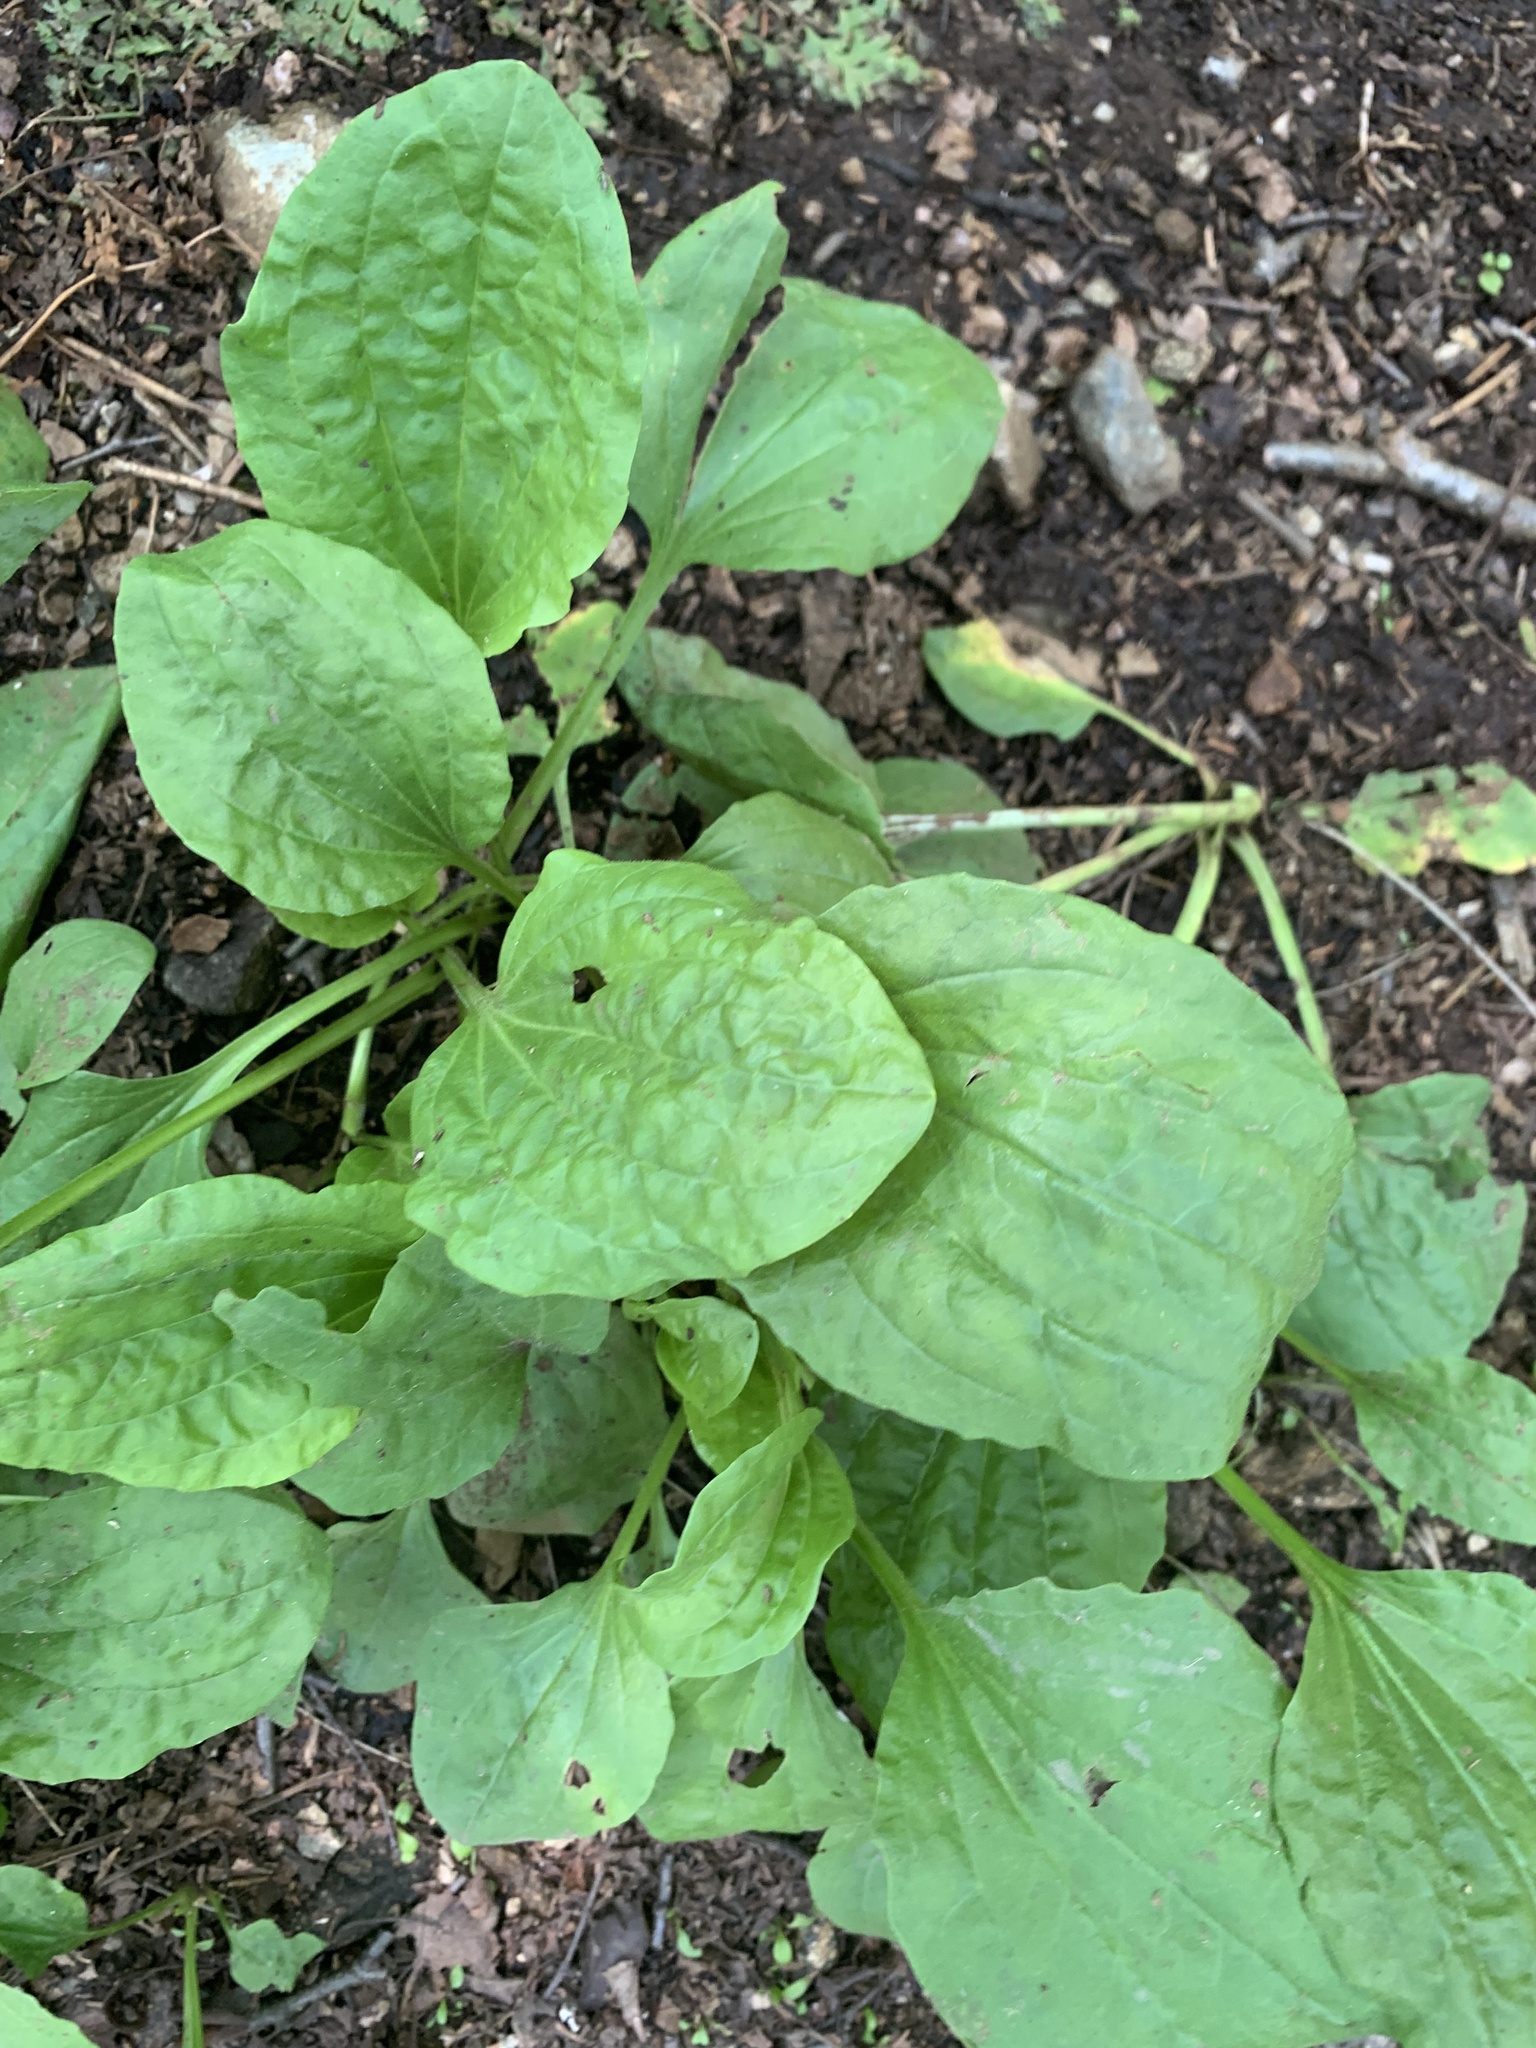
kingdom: Plantae
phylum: Tracheophyta
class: Magnoliopsida
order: Lamiales
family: Plantaginaceae
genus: Plantago
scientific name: Plantago major
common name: Common plantain
